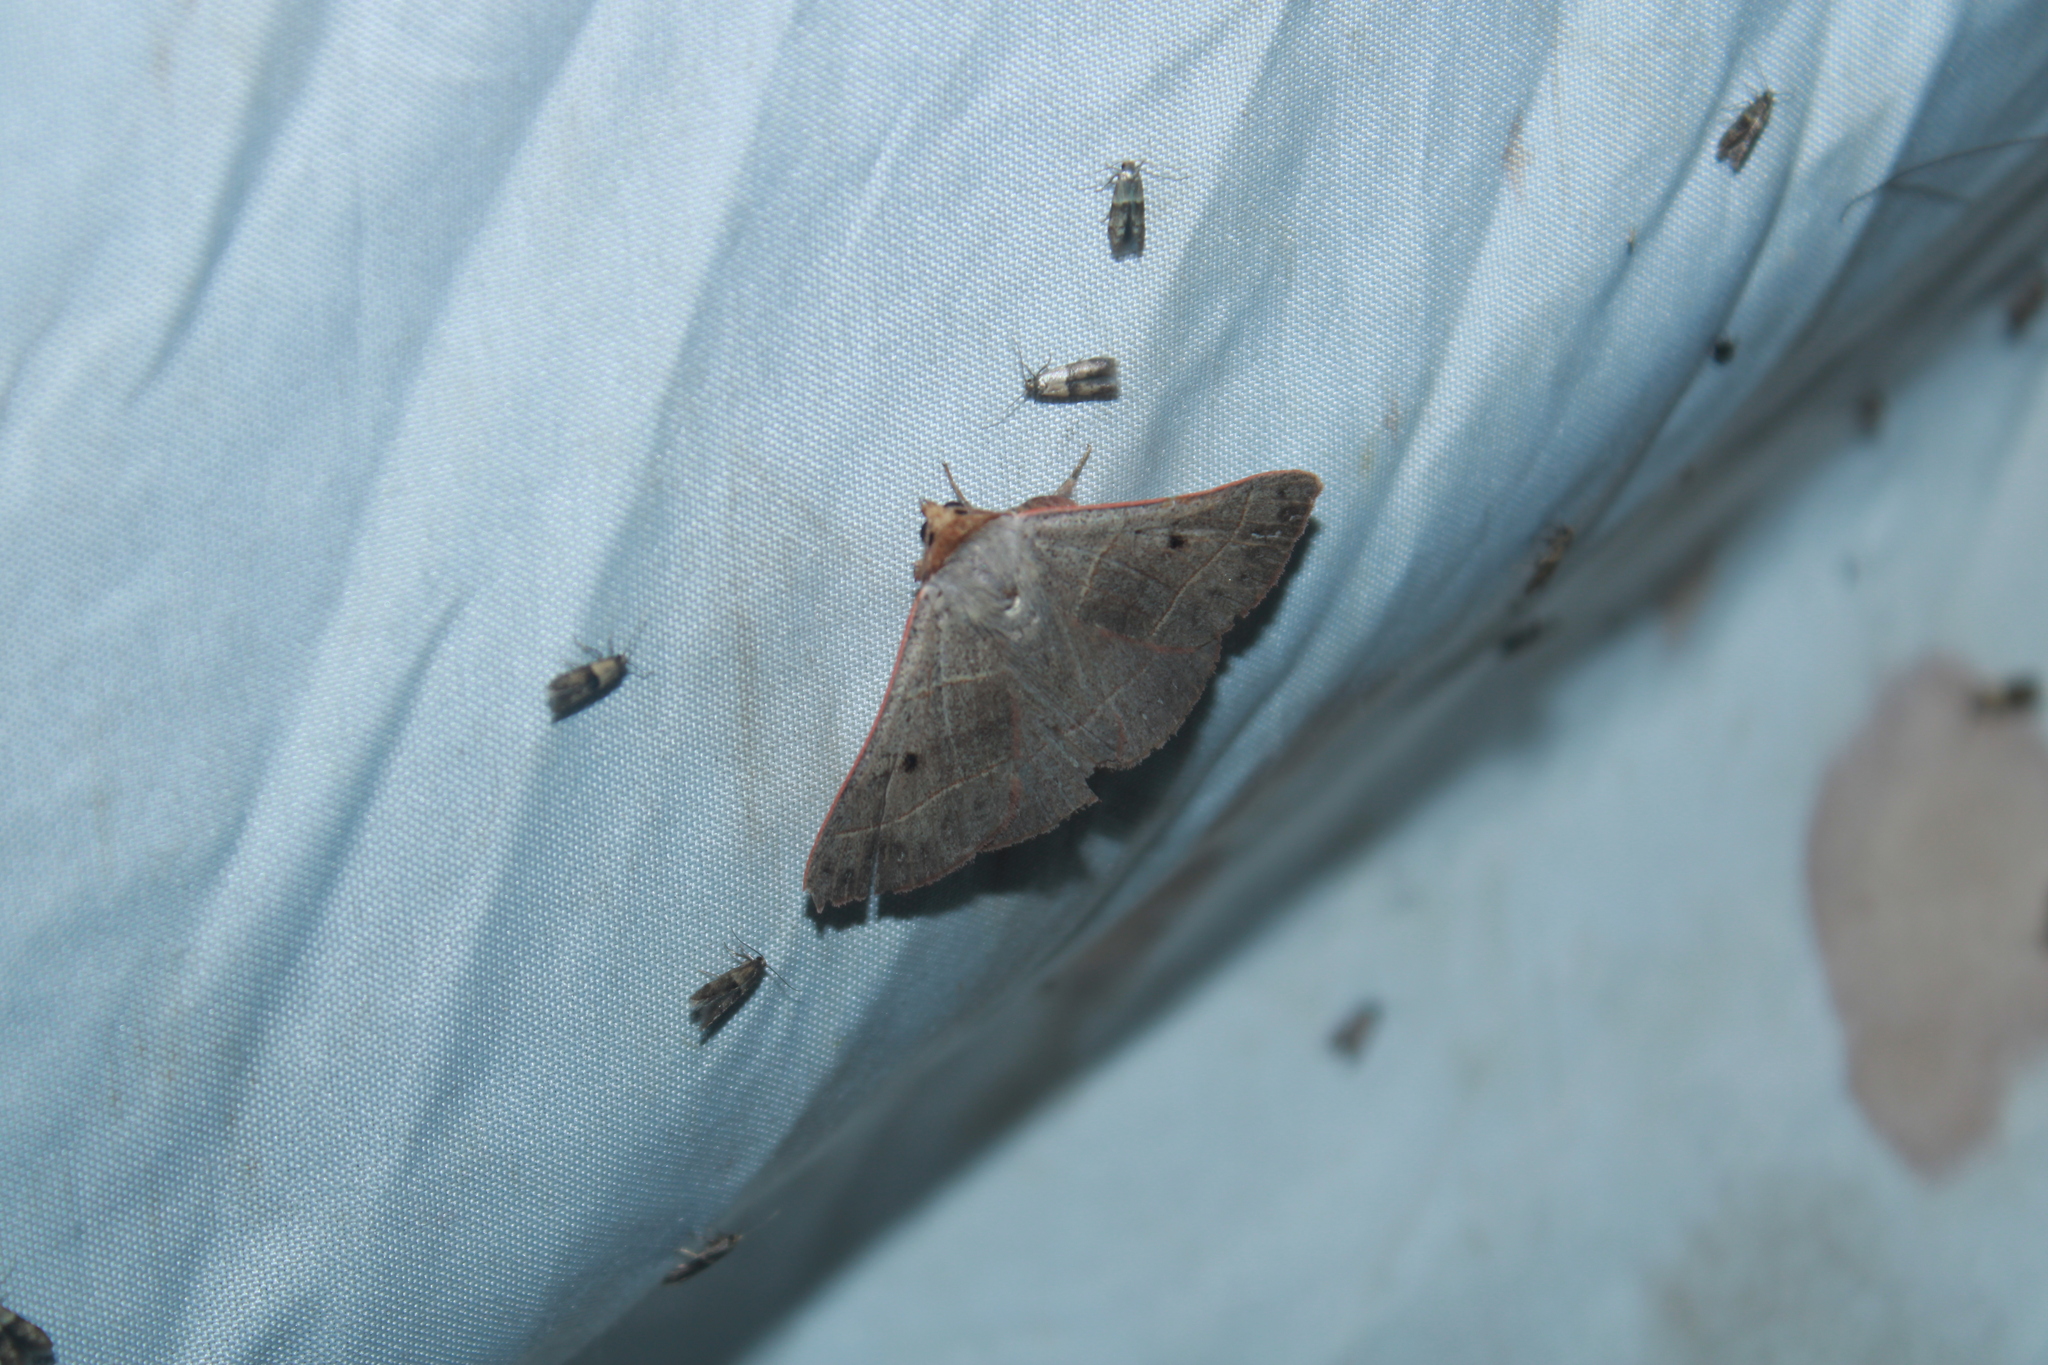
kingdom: Animalia
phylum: Arthropoda
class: Insecta
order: Lepidoptera
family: Erebidae
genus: Panopoda
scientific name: Panopoda rufimargo
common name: Red-lined panopoda moth
